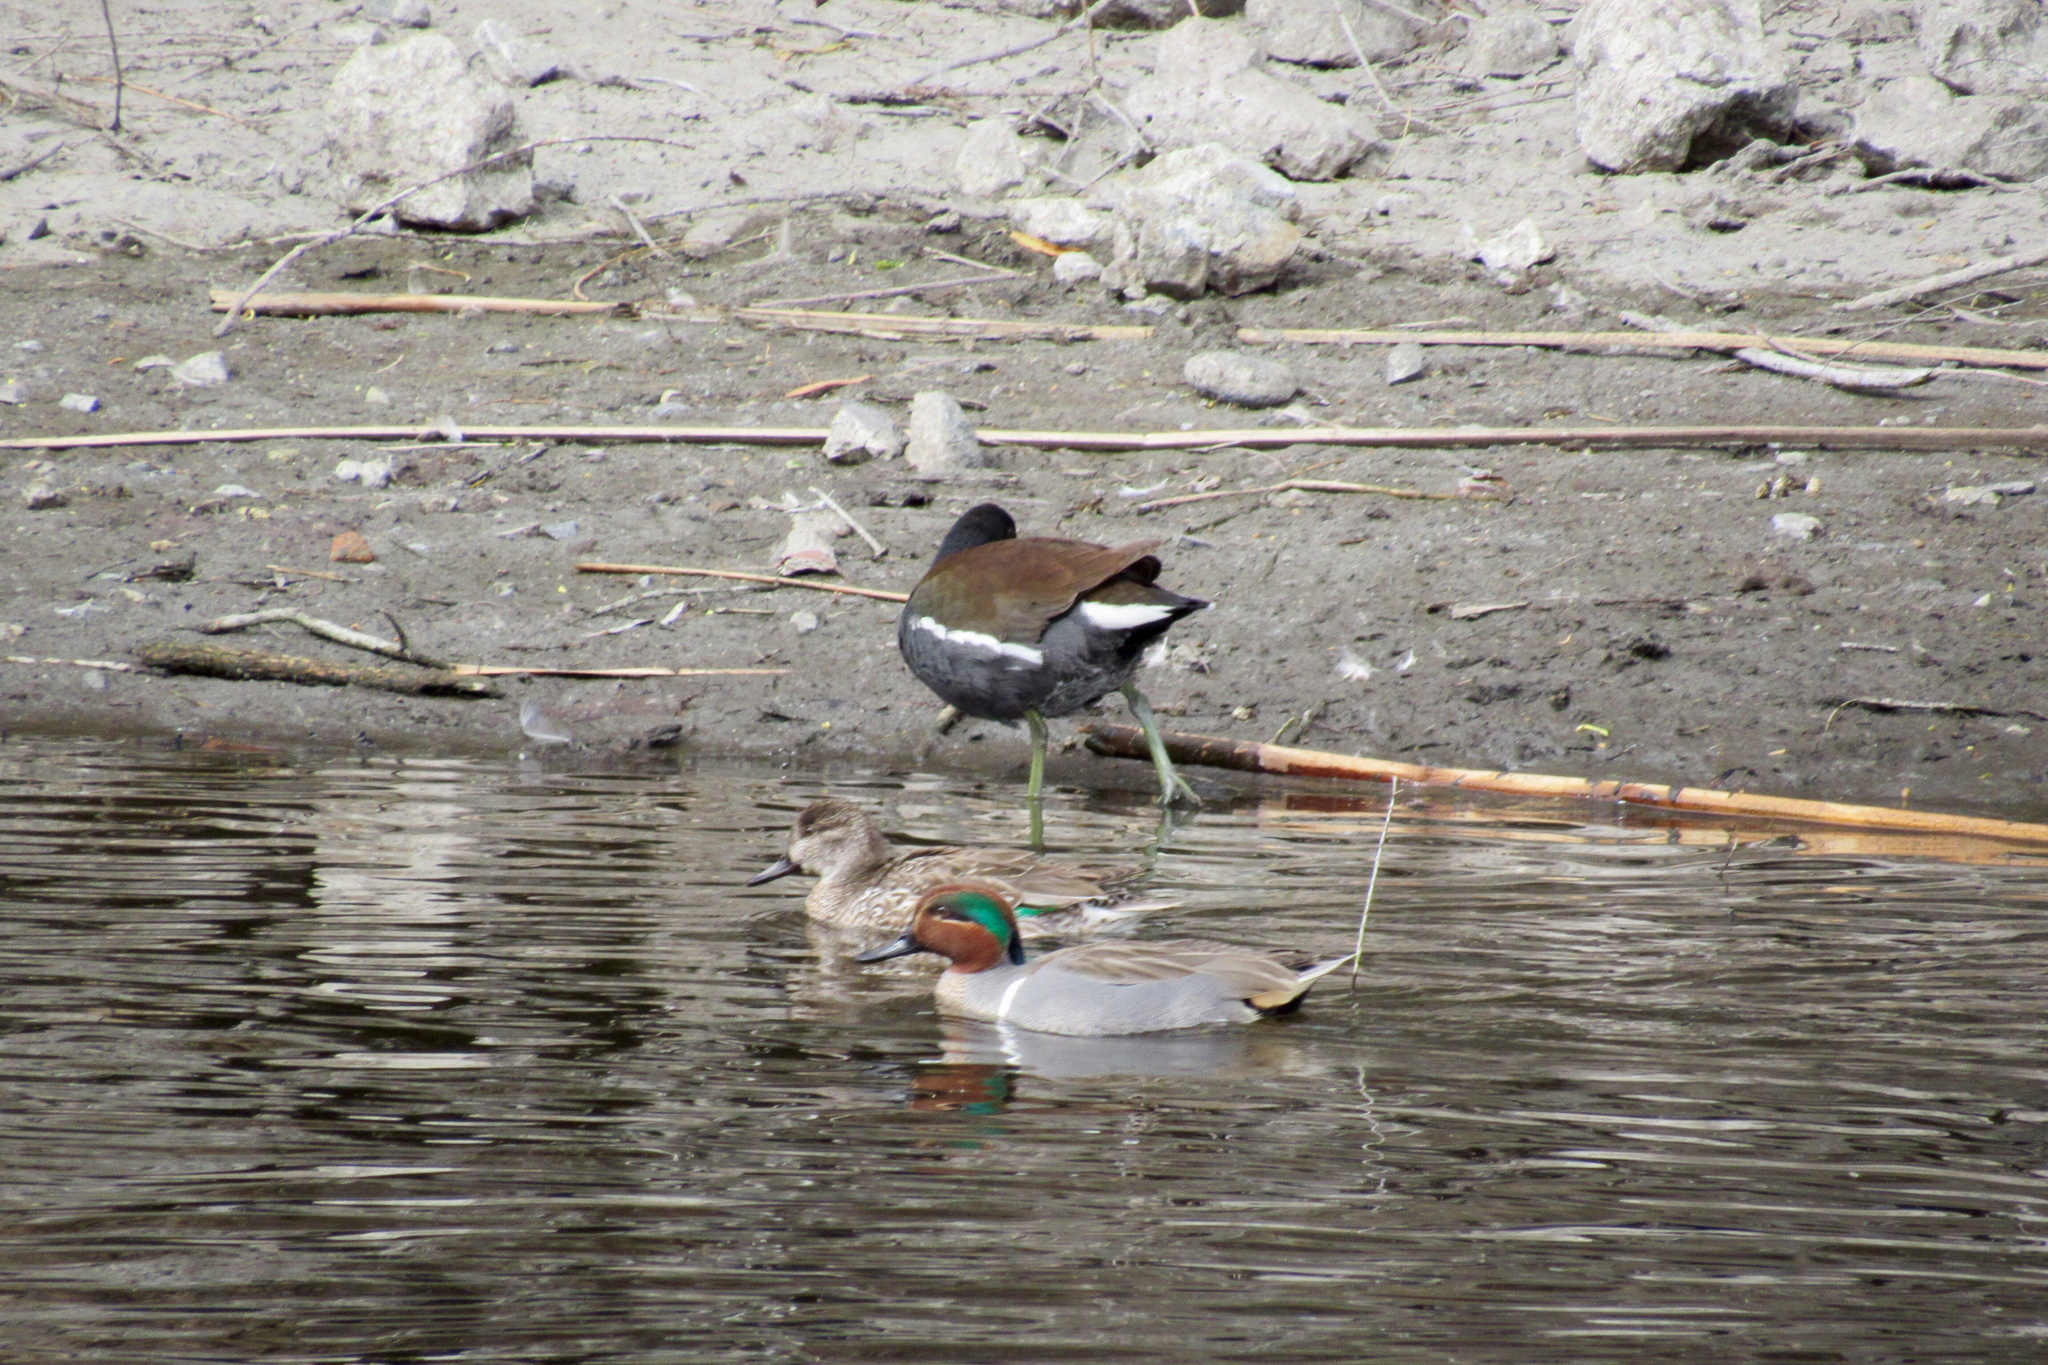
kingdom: Animalia
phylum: Chordata
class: Aves
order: Gruiformes
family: Rallidae
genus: Gallinula
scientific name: Gallinula chloropus
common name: Common moorhen
